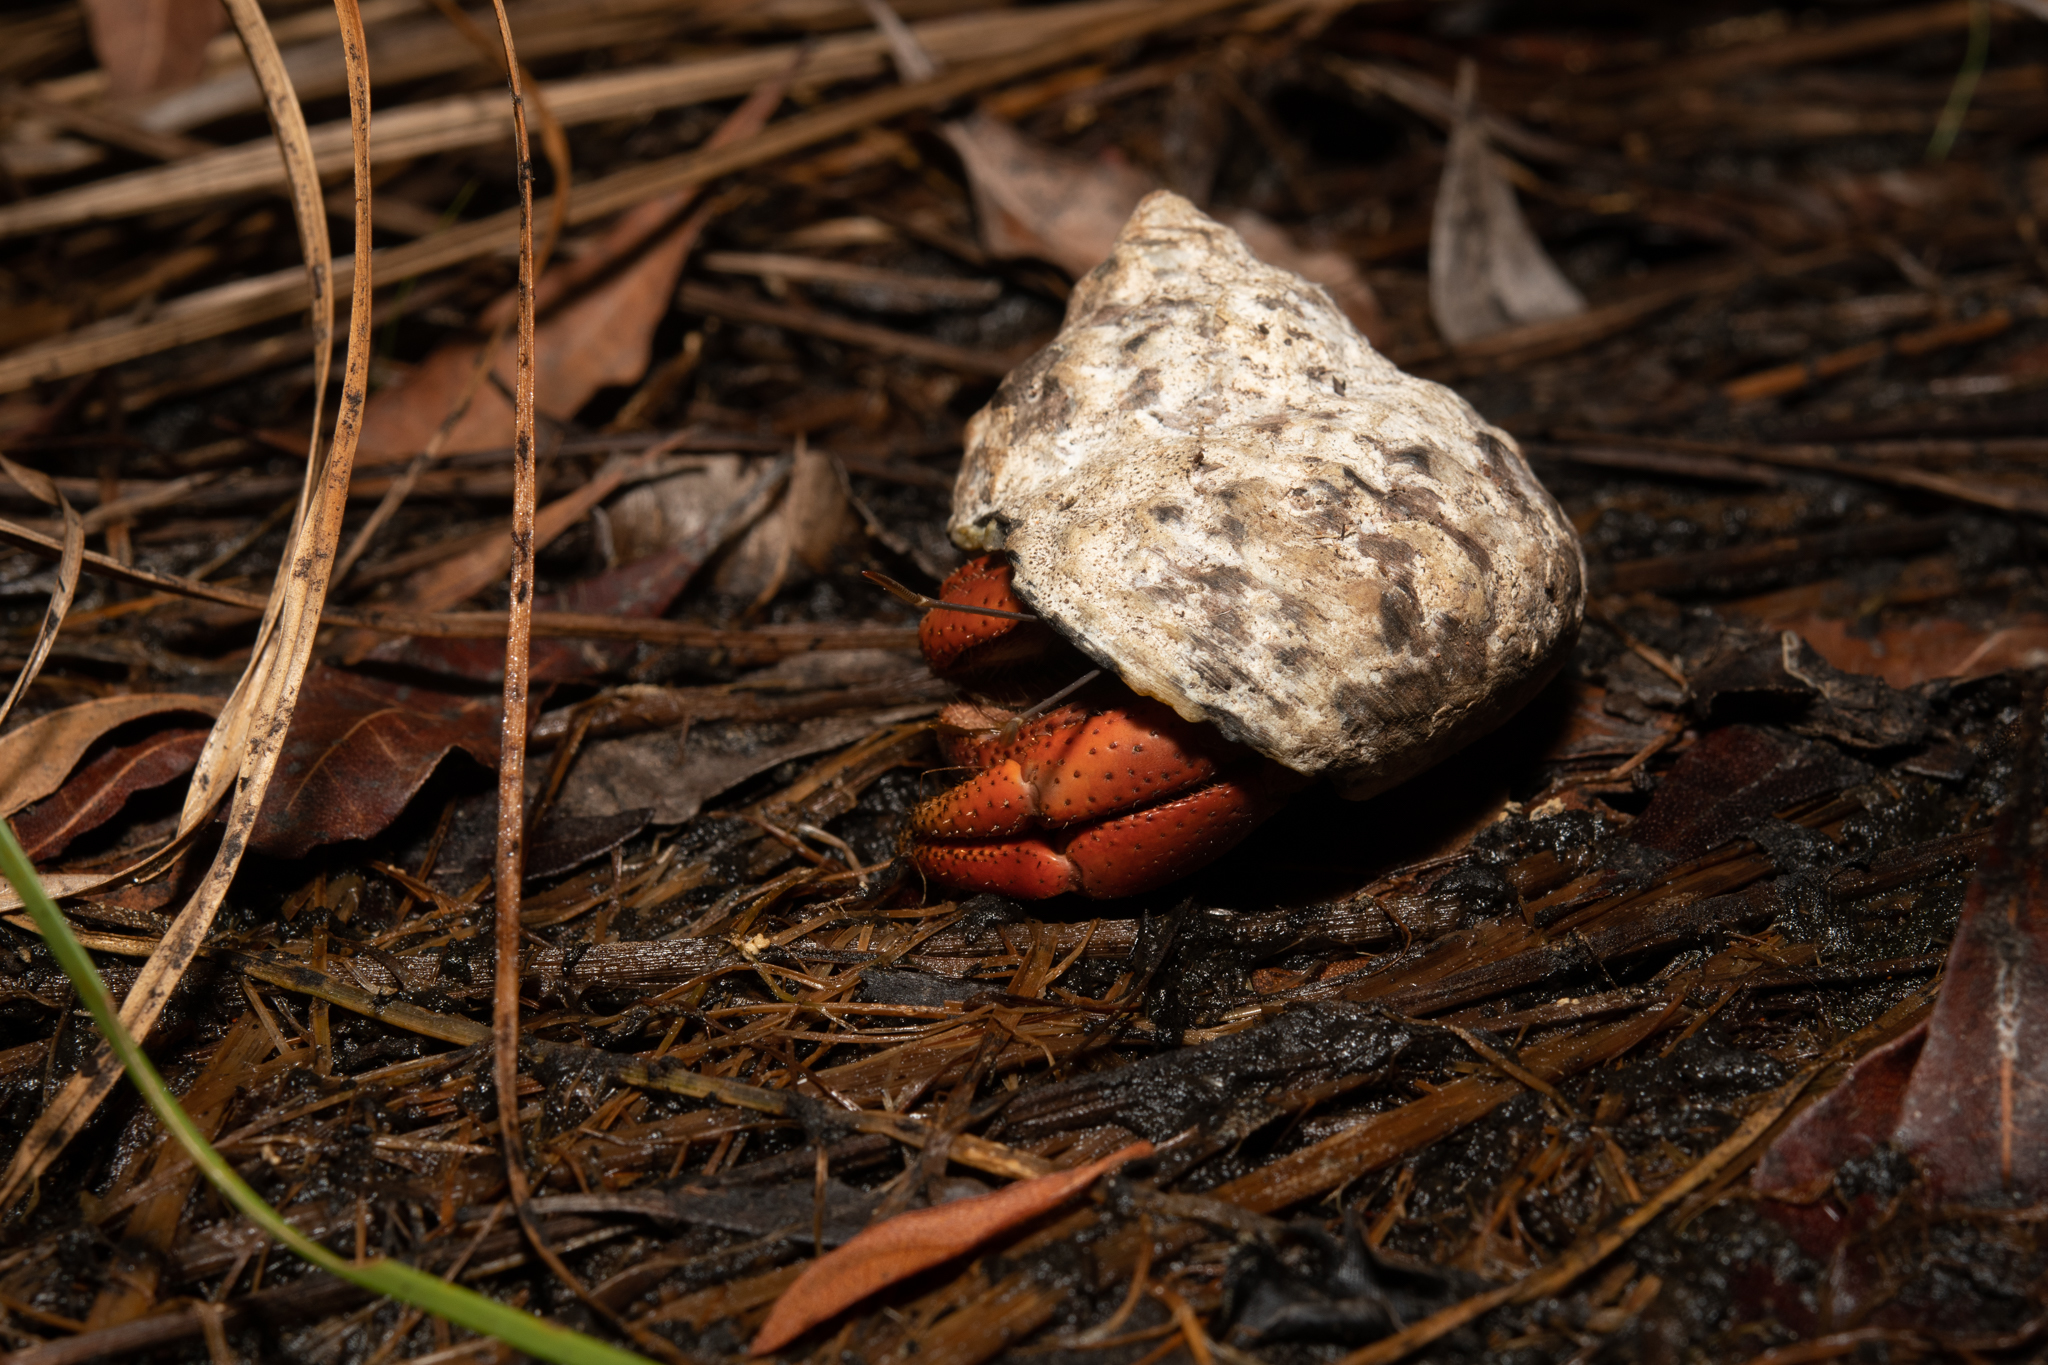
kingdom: Animalia
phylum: Arthropoda
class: Malacostraca
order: Decapoda
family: Coenobitidae
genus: Coenobita
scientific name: Coenobita clypeatus
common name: Caribbean hermit crab
